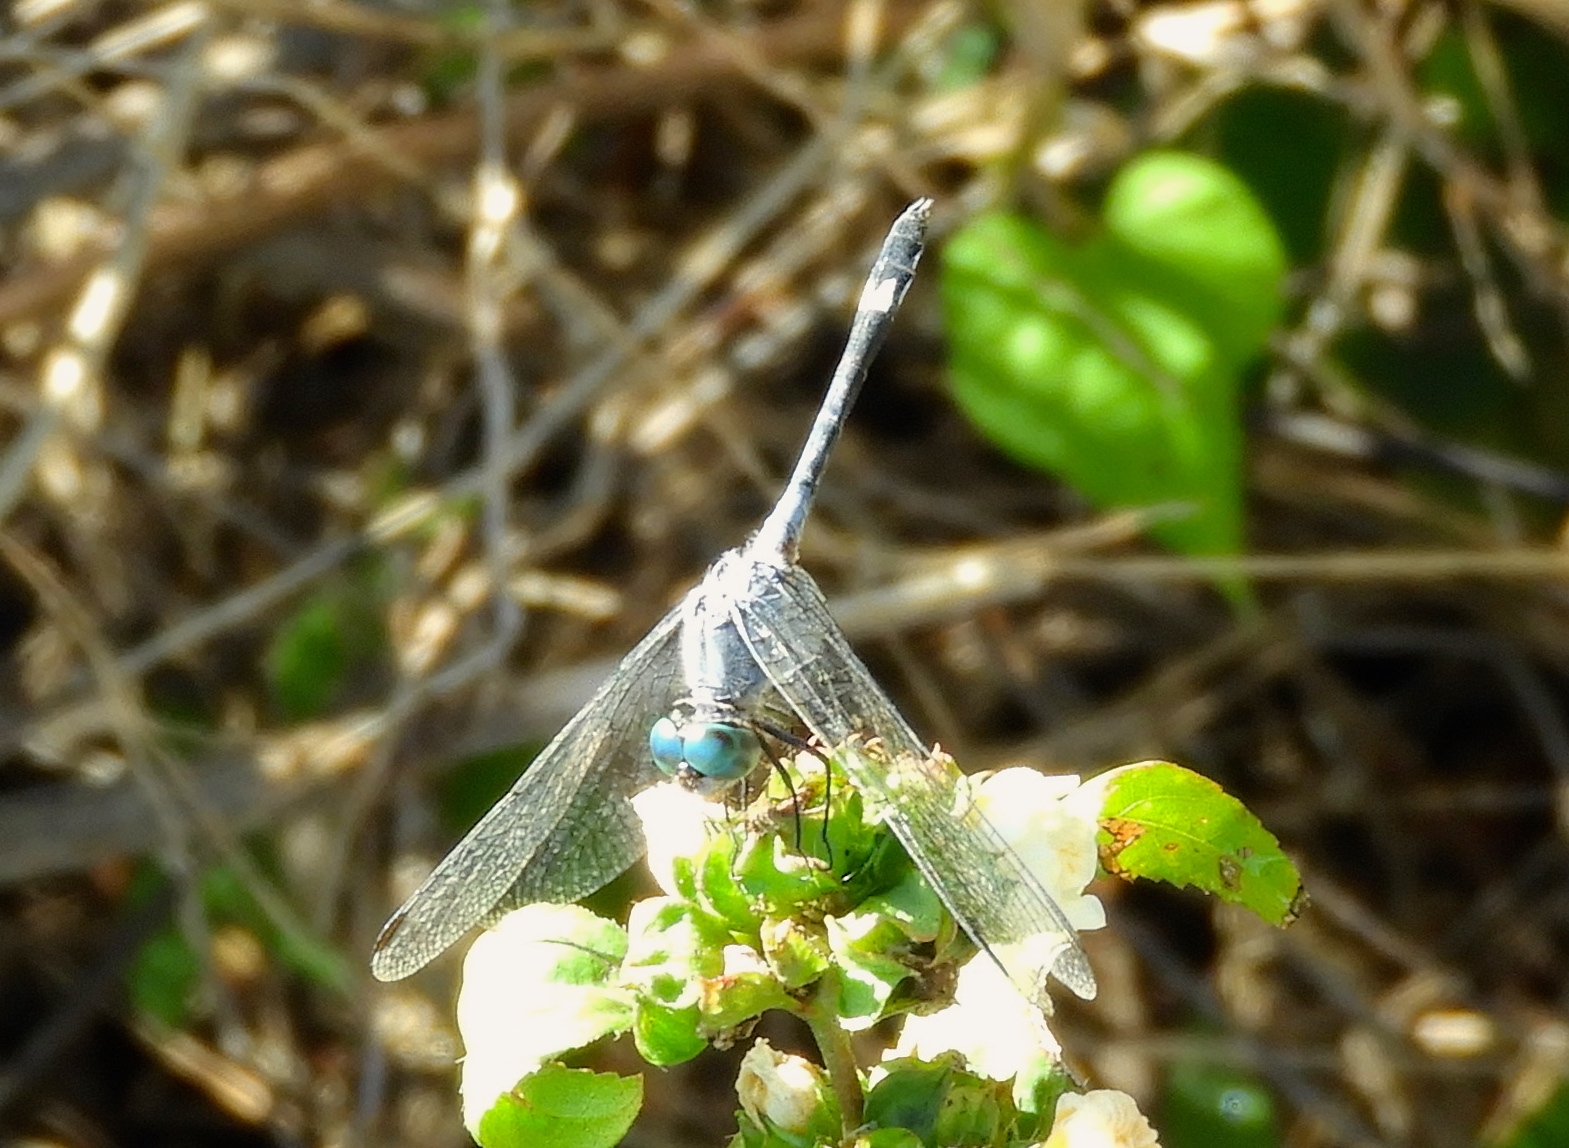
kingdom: Animalia
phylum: Arthropoda
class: Insecta
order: Odonata
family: Libellulidae
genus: Micrathyria
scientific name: Micrathyria aequalis
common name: Spot-tailed dasher
